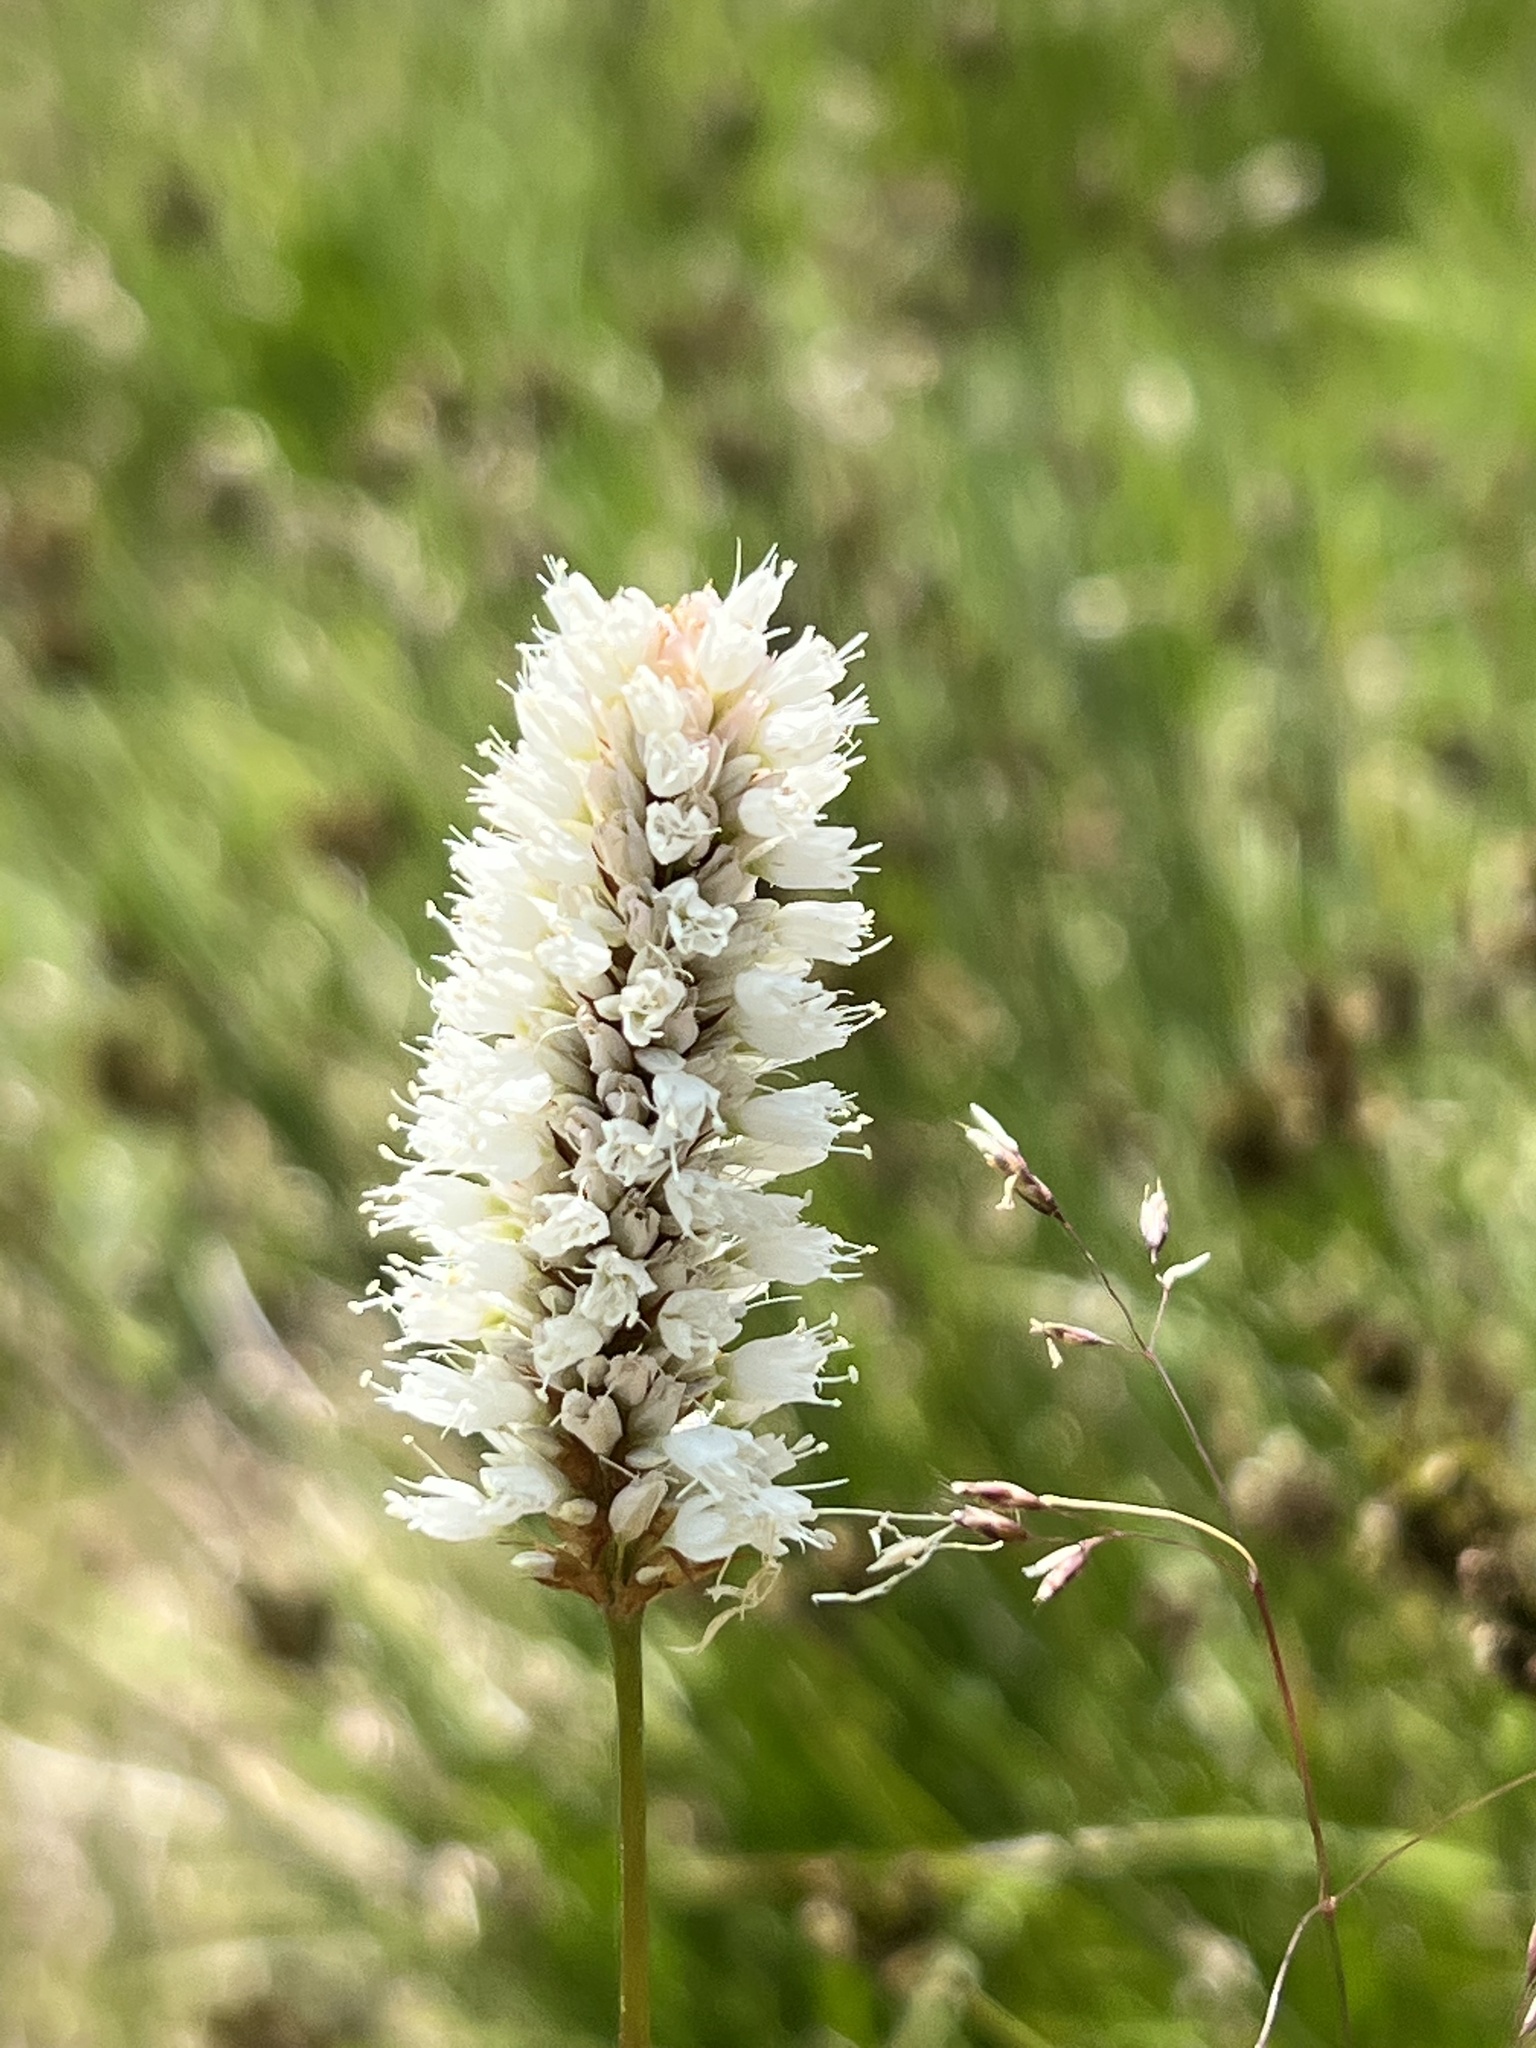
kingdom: Plantae
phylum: Tracheophyta
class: Magnoliopsida
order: Caryophyllales
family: Polygonaceae
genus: Bistorta
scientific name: Bistorta bistortoides
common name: American bistort
